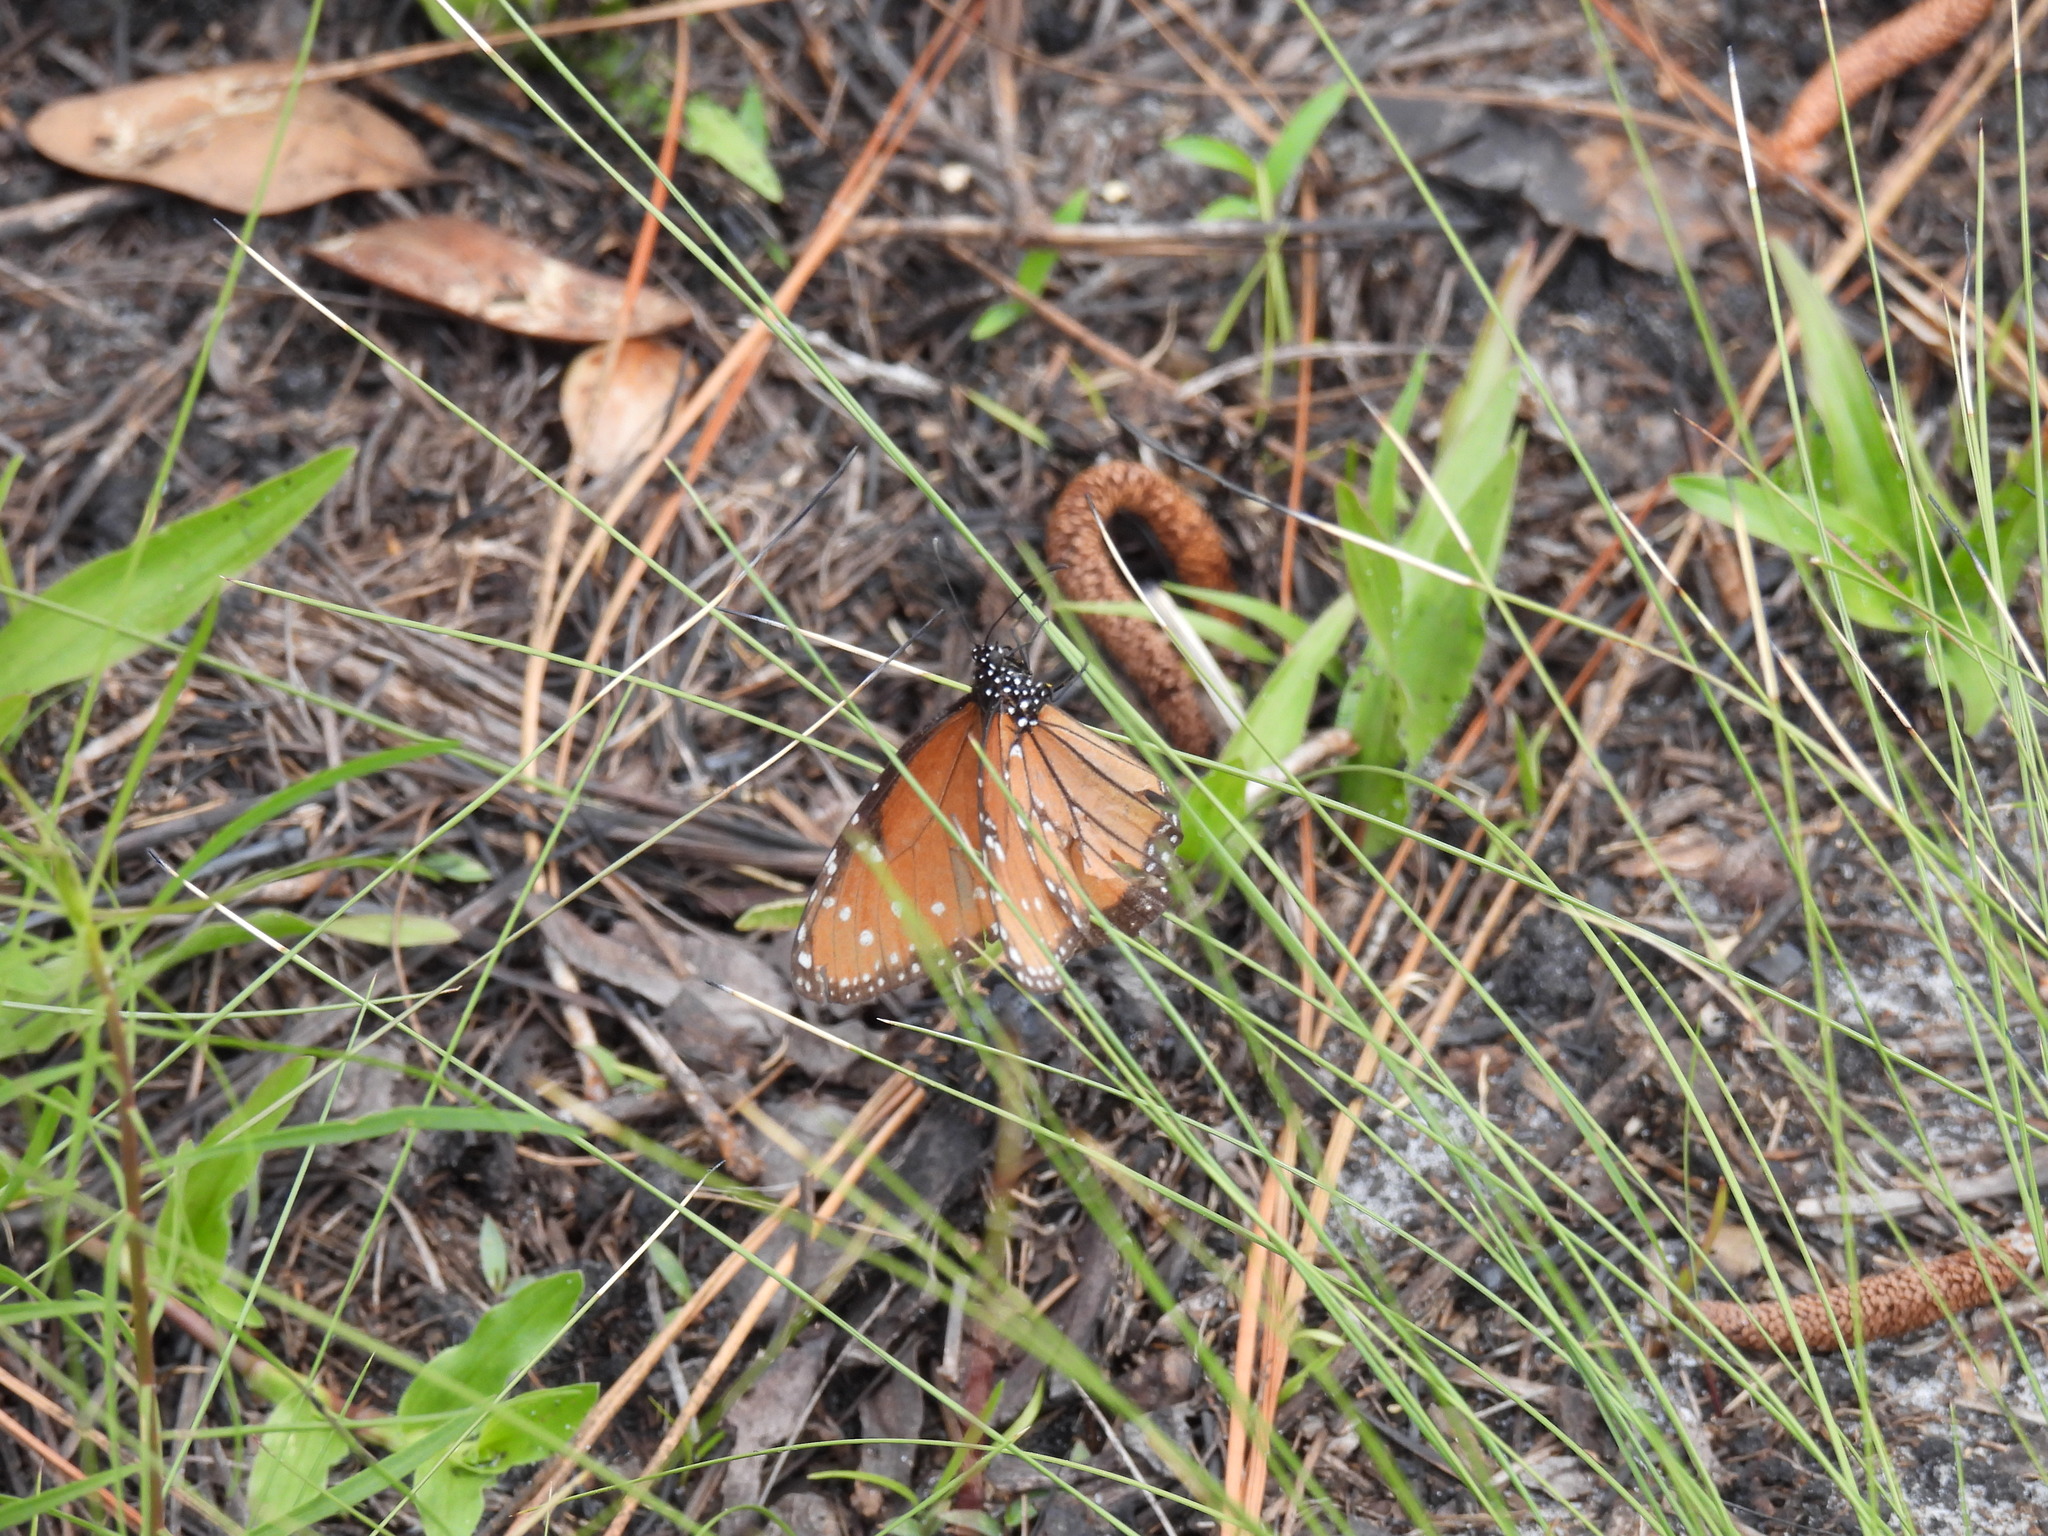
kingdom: Animalia
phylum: Arthropoda
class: Insecta
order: Lepidoptera
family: Nymphalidae
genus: Danaus
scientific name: Danaus gilippus
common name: Queen
